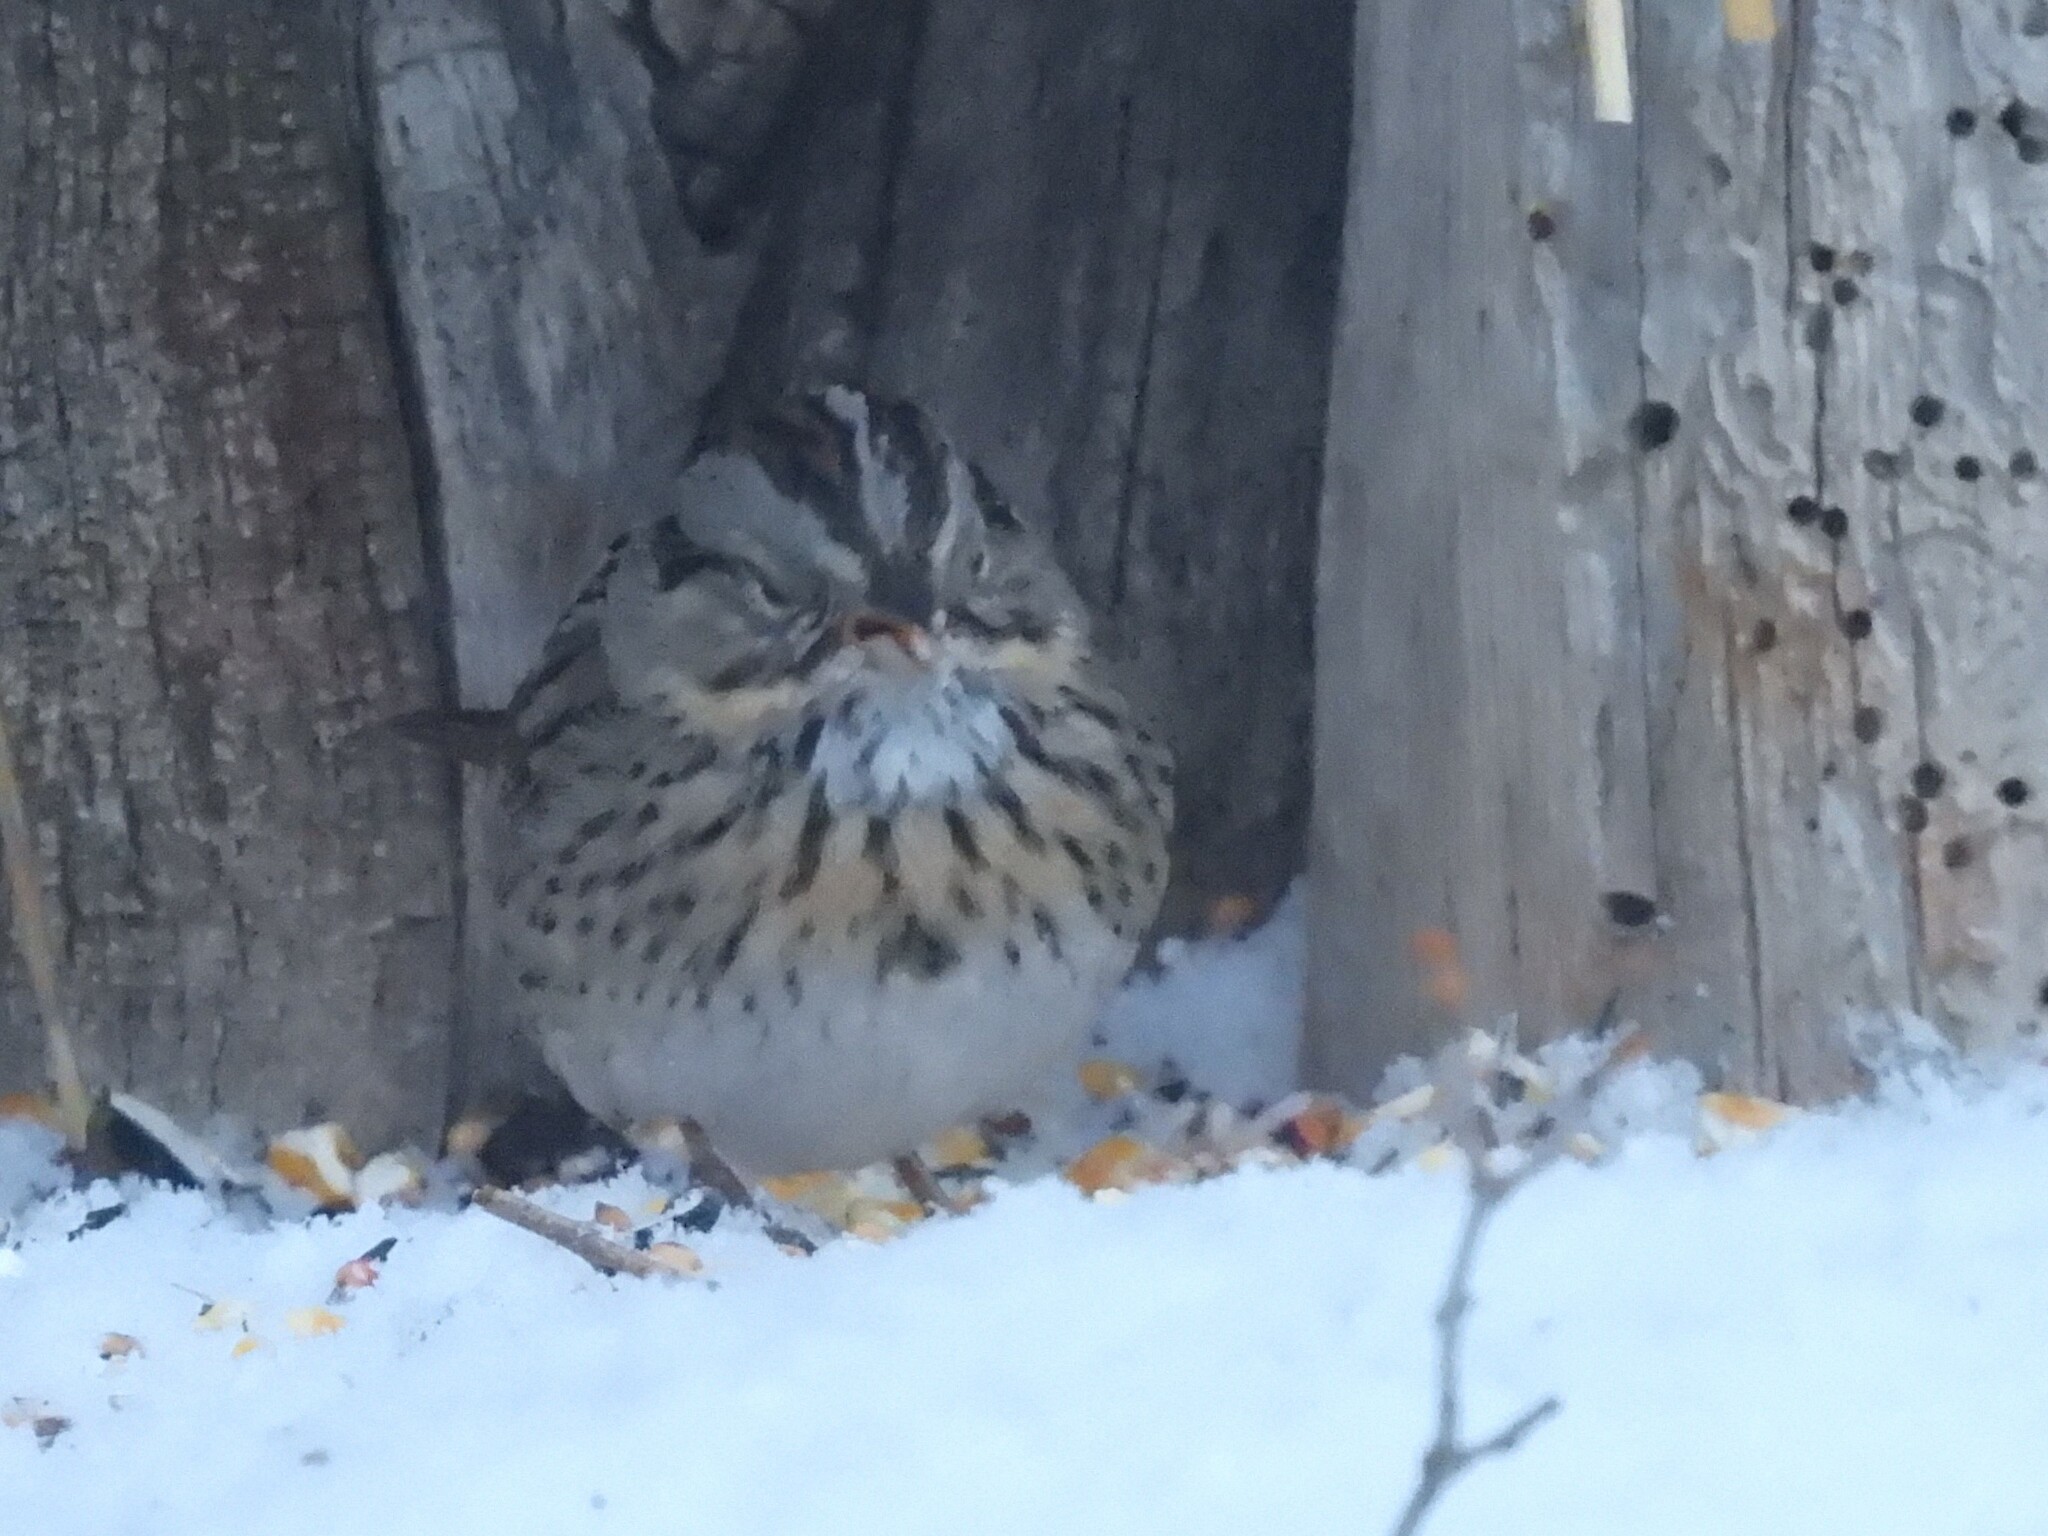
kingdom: Animalia
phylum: Chordata
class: Aves
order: Passeriformes
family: Passerellidae
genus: Melospiza
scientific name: Melospiza lincolnii
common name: Lincoln's sparrow
